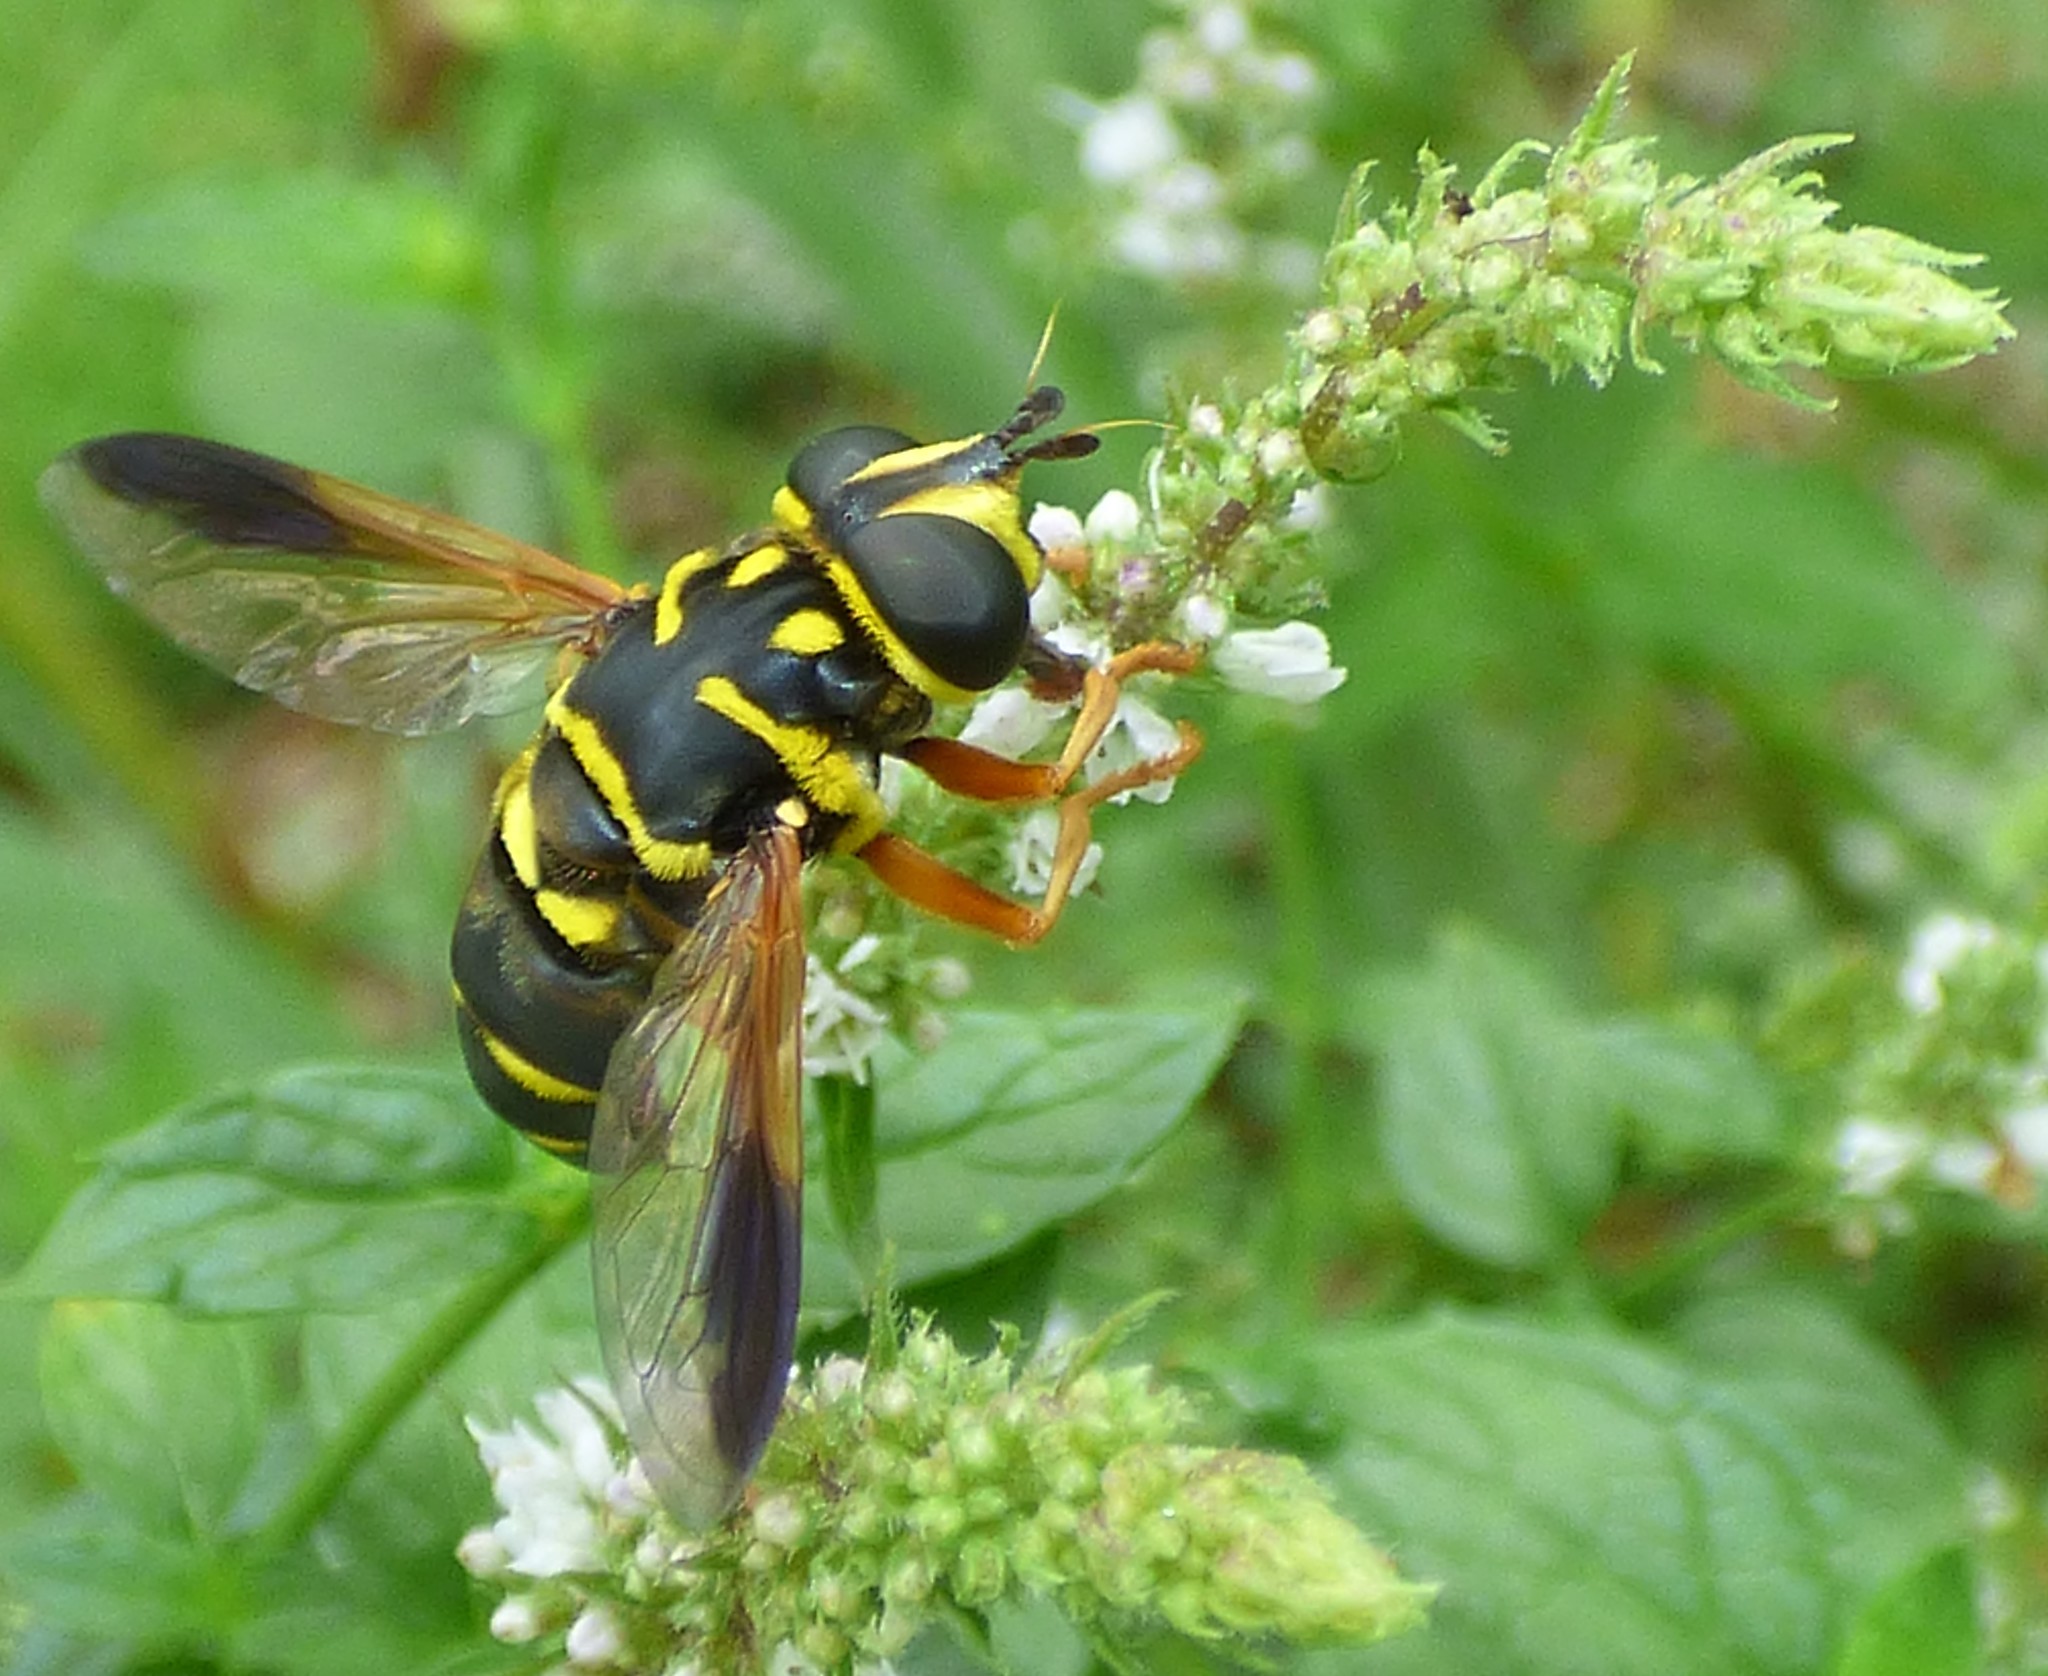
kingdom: Animalia
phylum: Arthropoda
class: Insecta
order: Diptera
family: Syrphidae
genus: Meromacrus
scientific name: Meromacrus acutus
